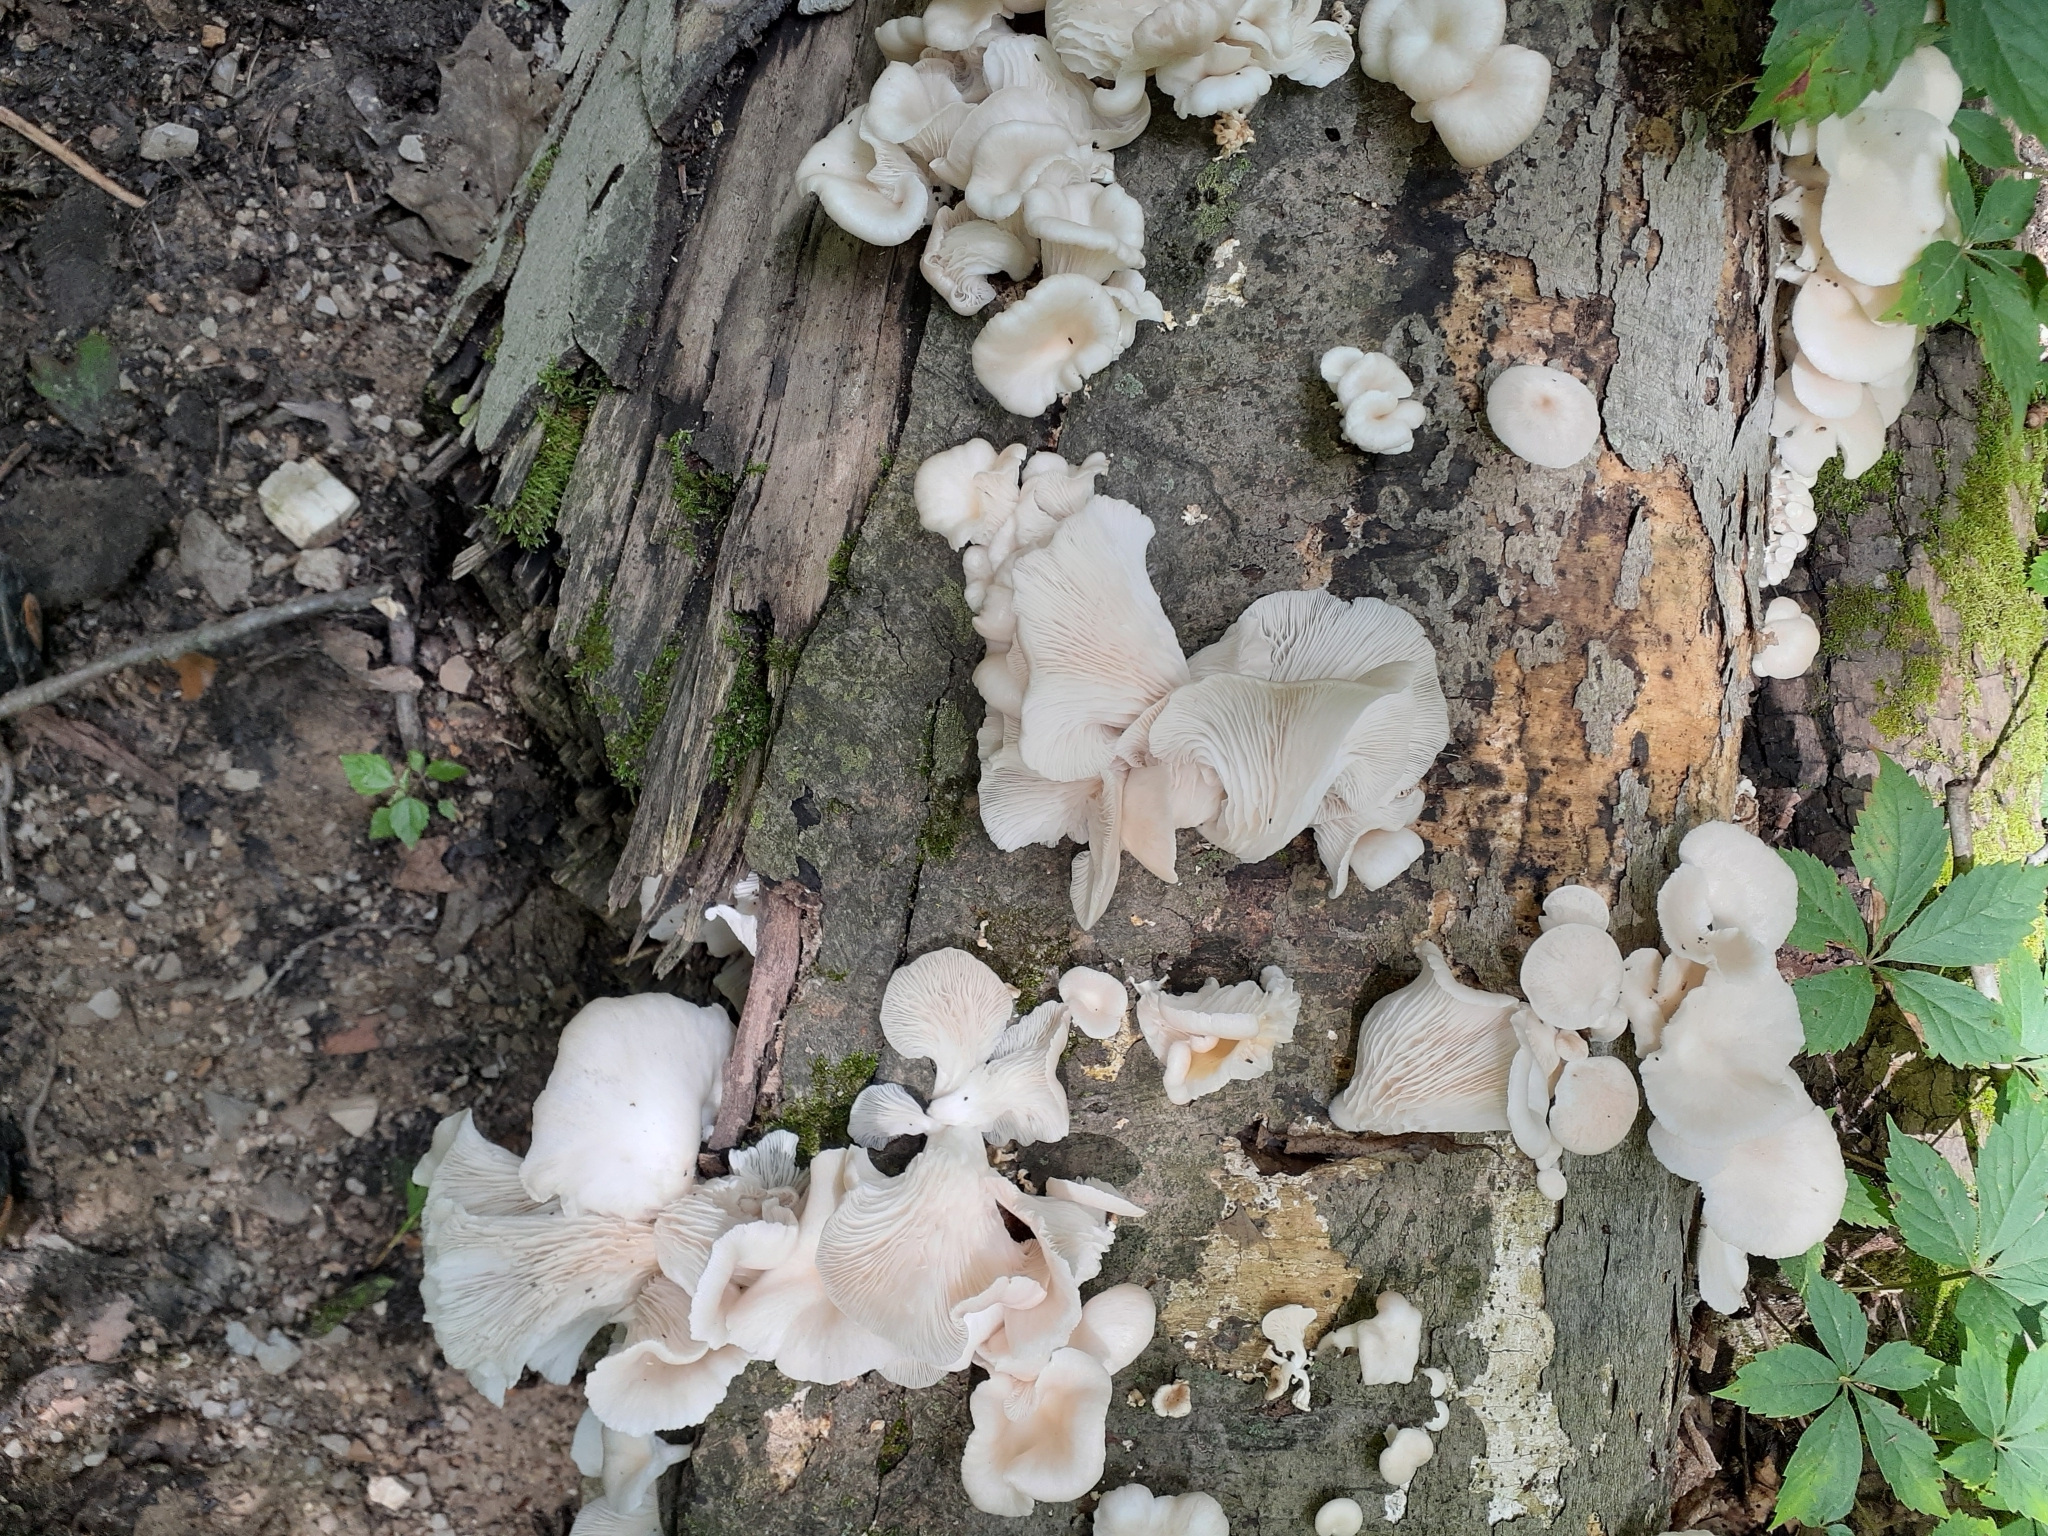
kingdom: Fungi
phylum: Basidiomycota
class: Agaricomycetes
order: Agaricales
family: Pleurotaceae
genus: Pleurotus
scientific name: Pleurotus pulmonarius
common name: Pale oyster
